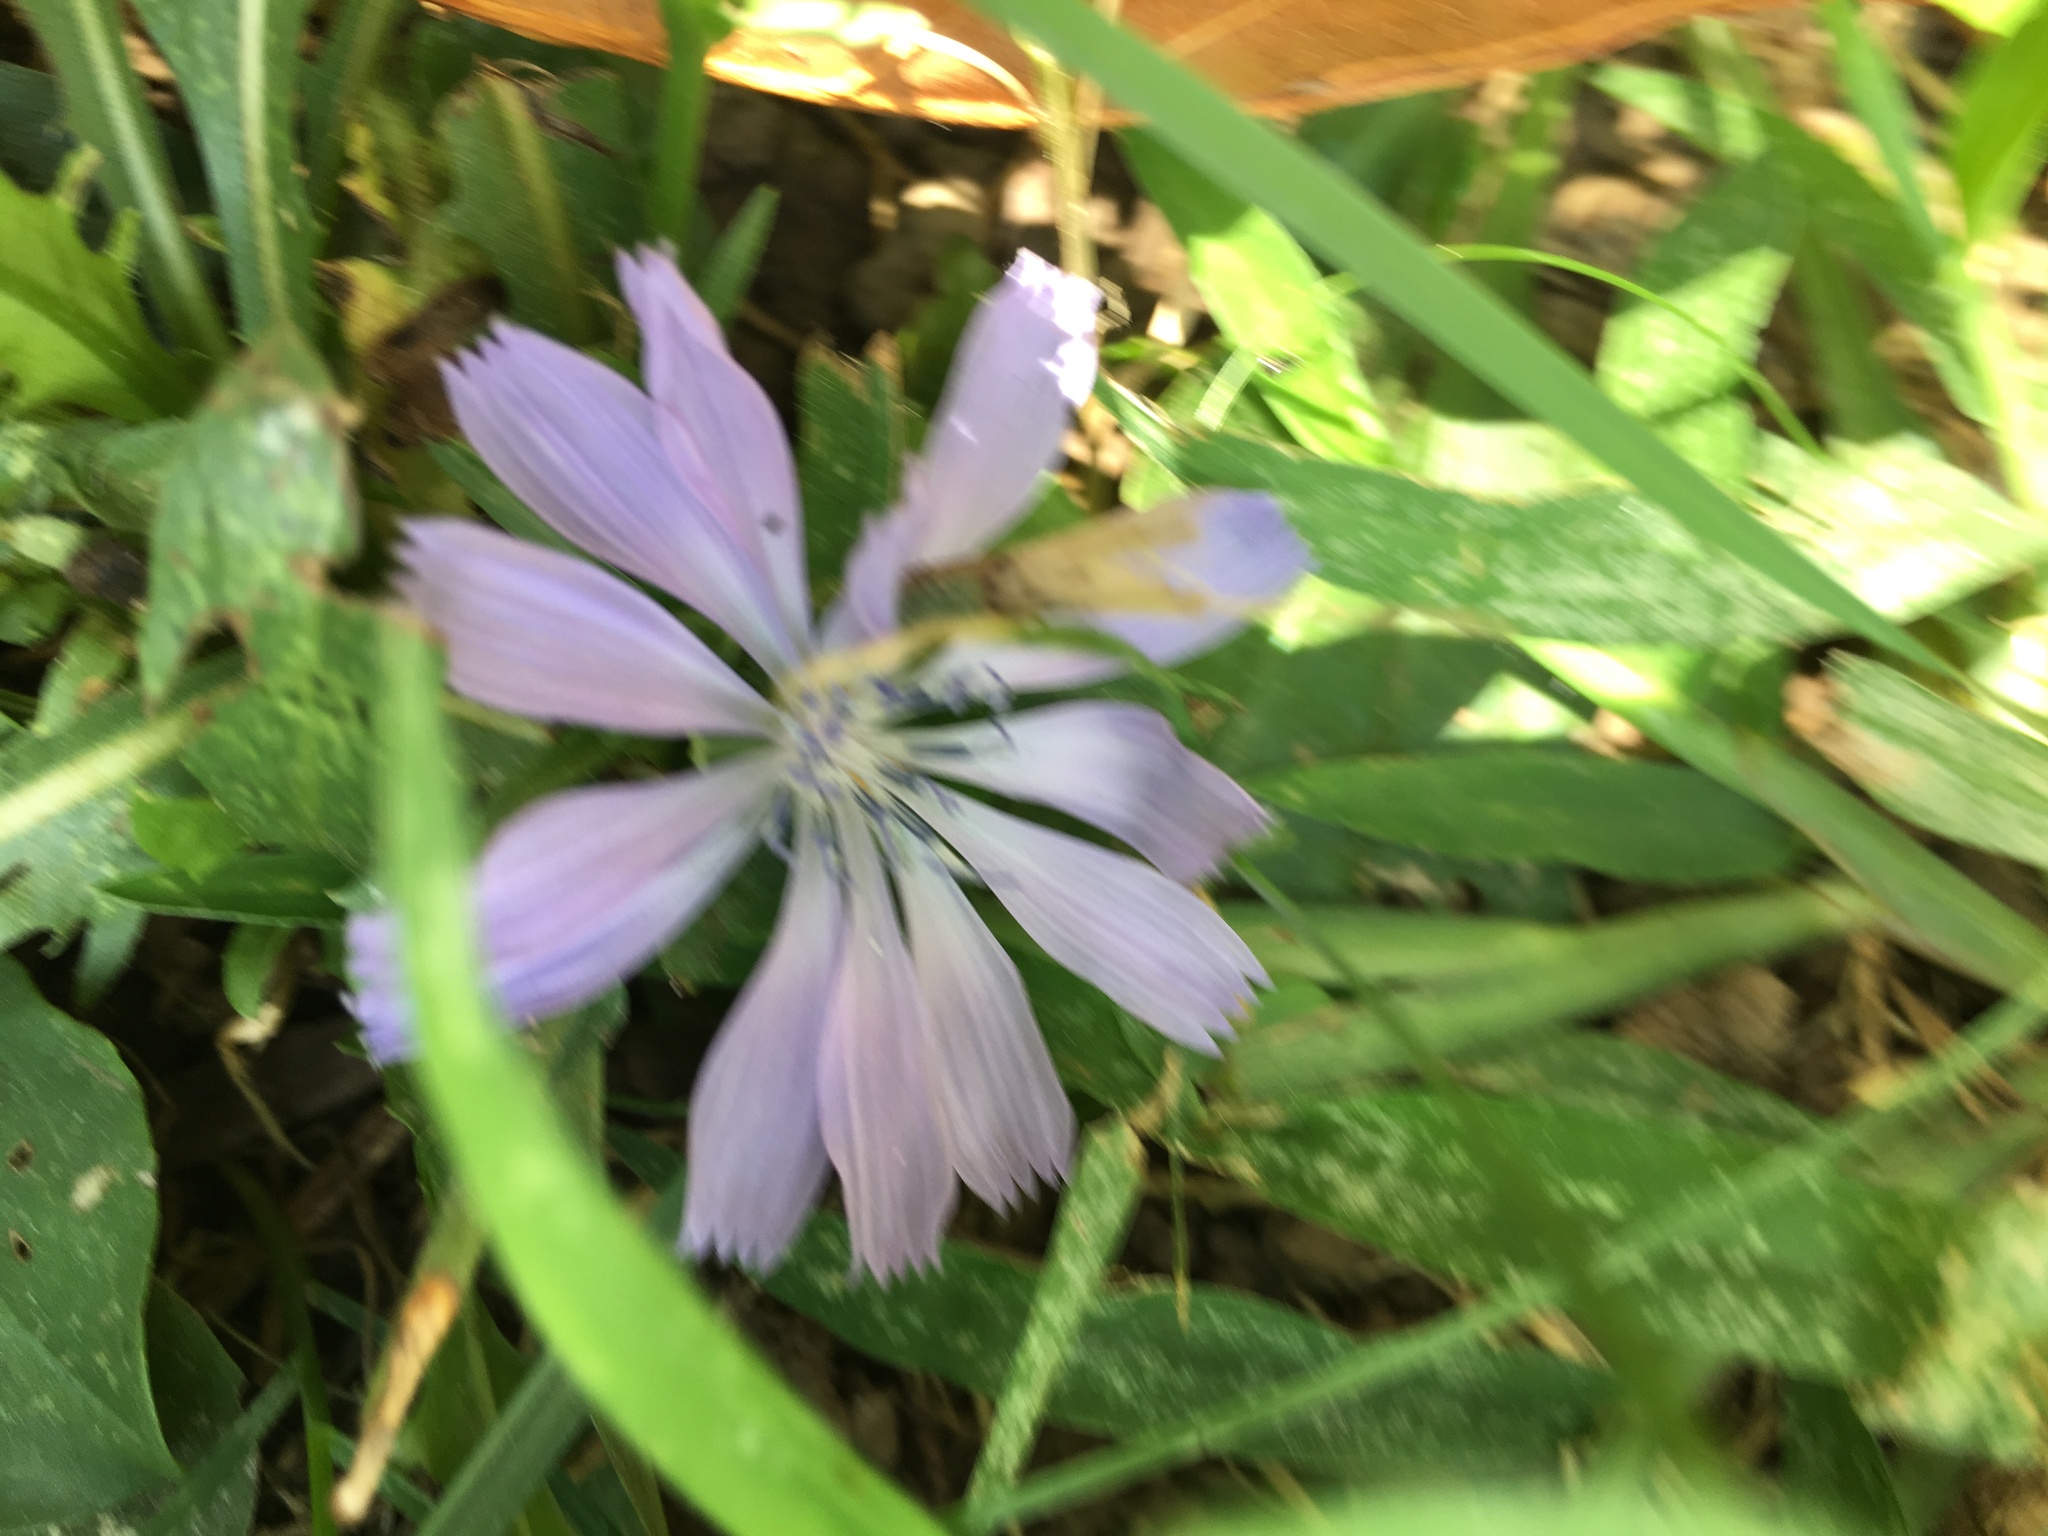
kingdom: Plantae
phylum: Tracheophyta
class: Magnoliopsida
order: Asterales
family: Asteraceae
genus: Cichorium
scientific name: Cichorium intybus
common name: Chicory
